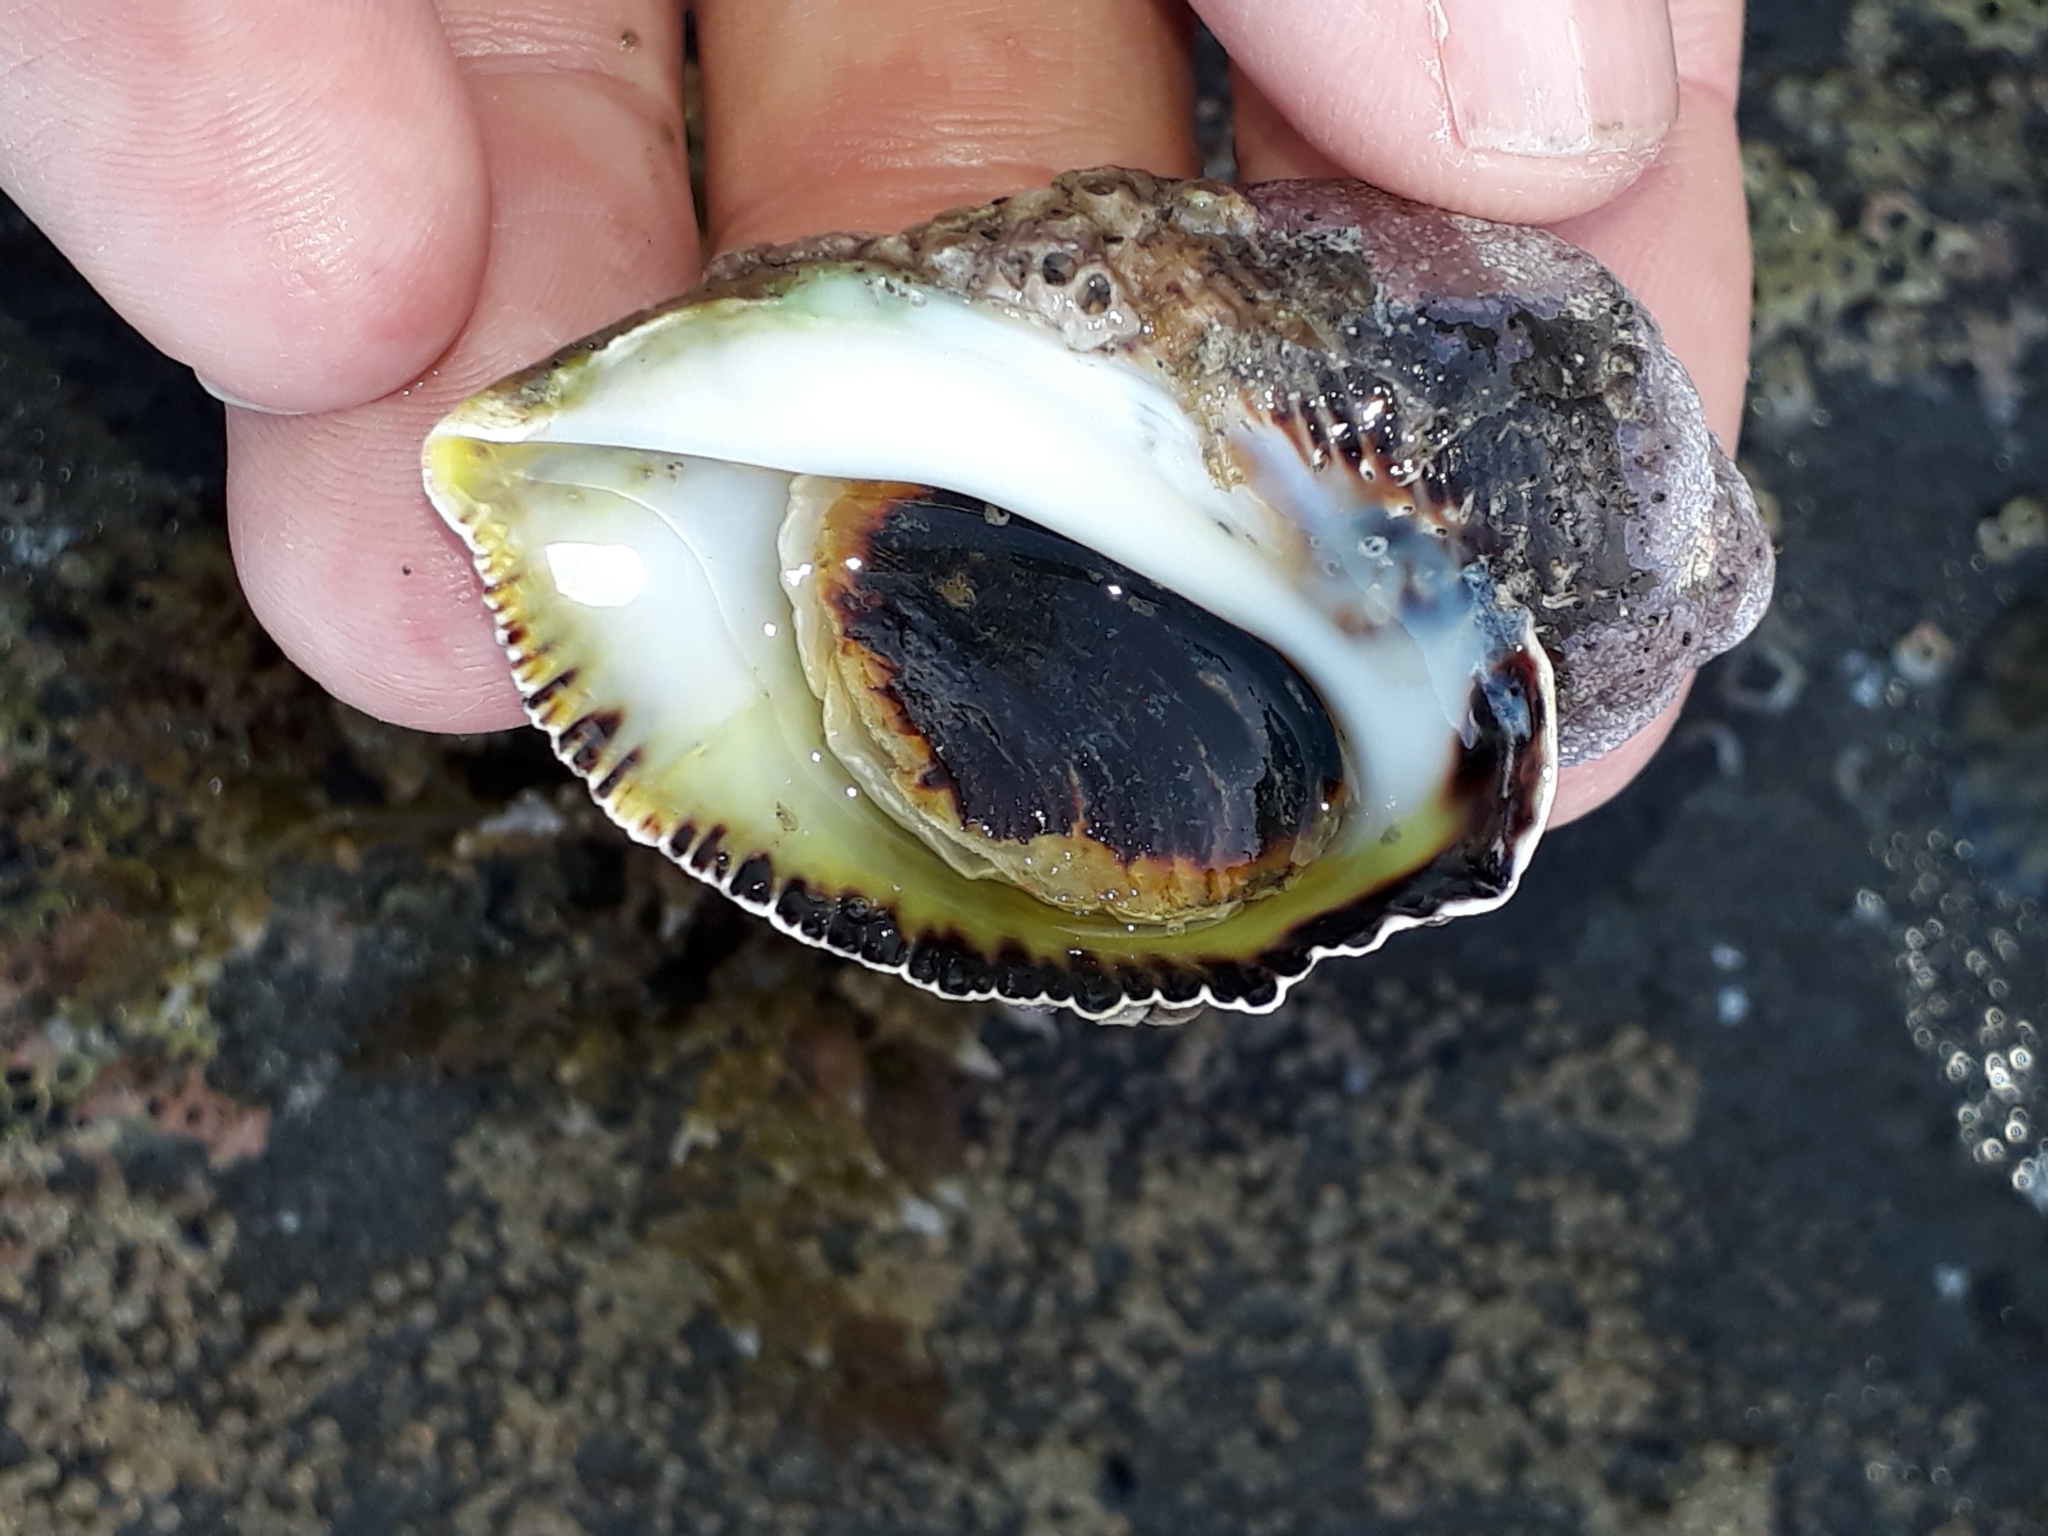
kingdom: Animalia
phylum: Mollusca
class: Gastropoda
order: Neogastropoda
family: Muricidae
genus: Haustrum
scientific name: Haustrum haustorium
